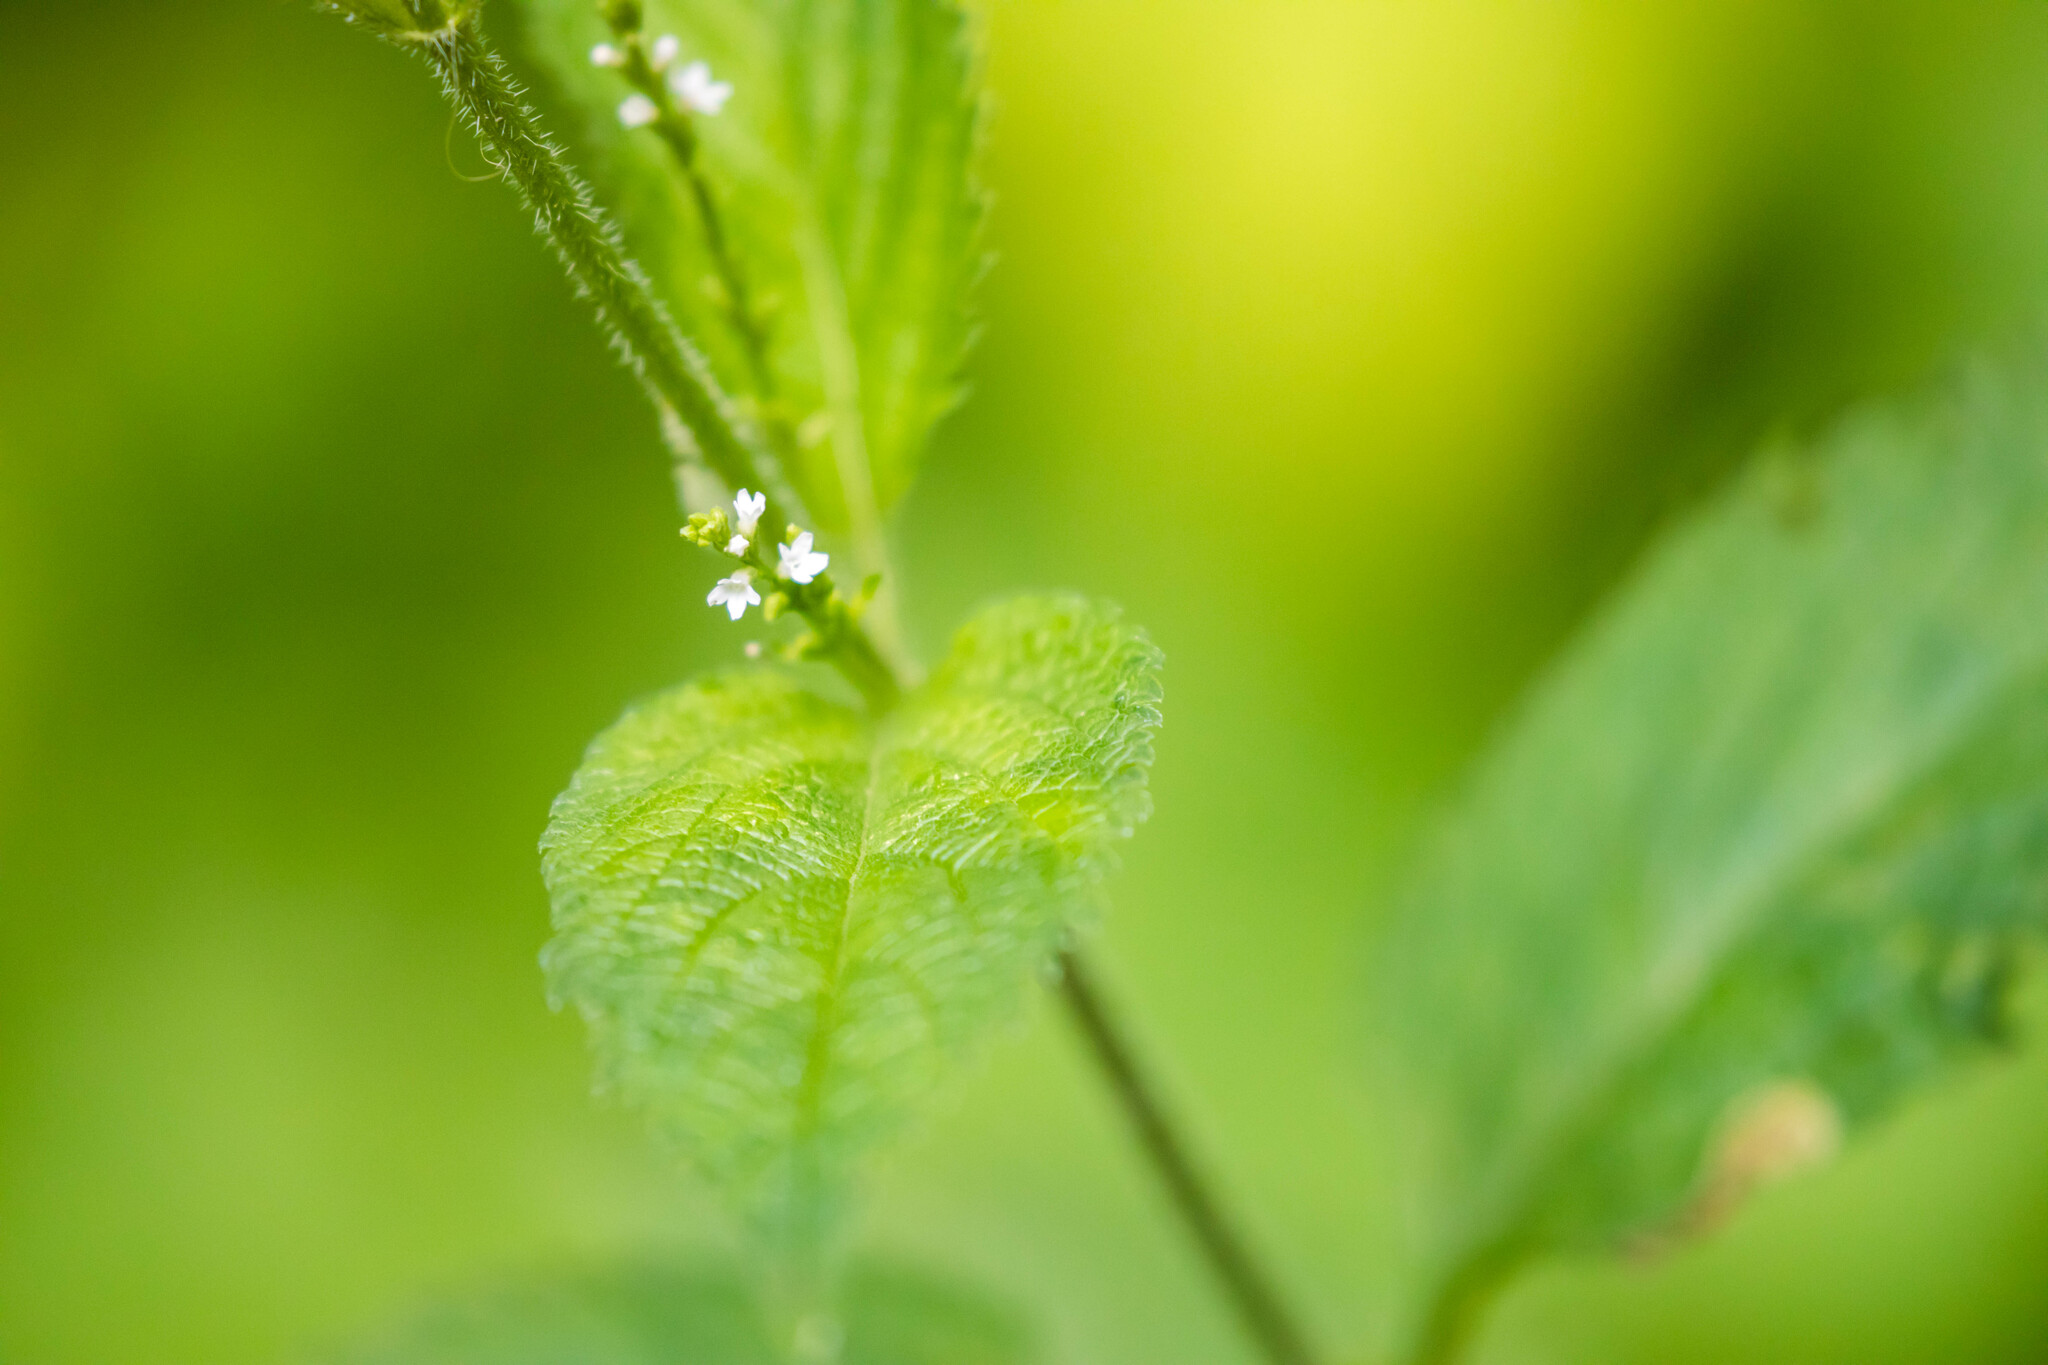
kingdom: Plantae
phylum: Tracheophyta
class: Magnoliopsida
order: Lamiales
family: Verbenaceae
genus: Verbena
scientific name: Verbena urticifolia
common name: Nettle-leaved vervain
